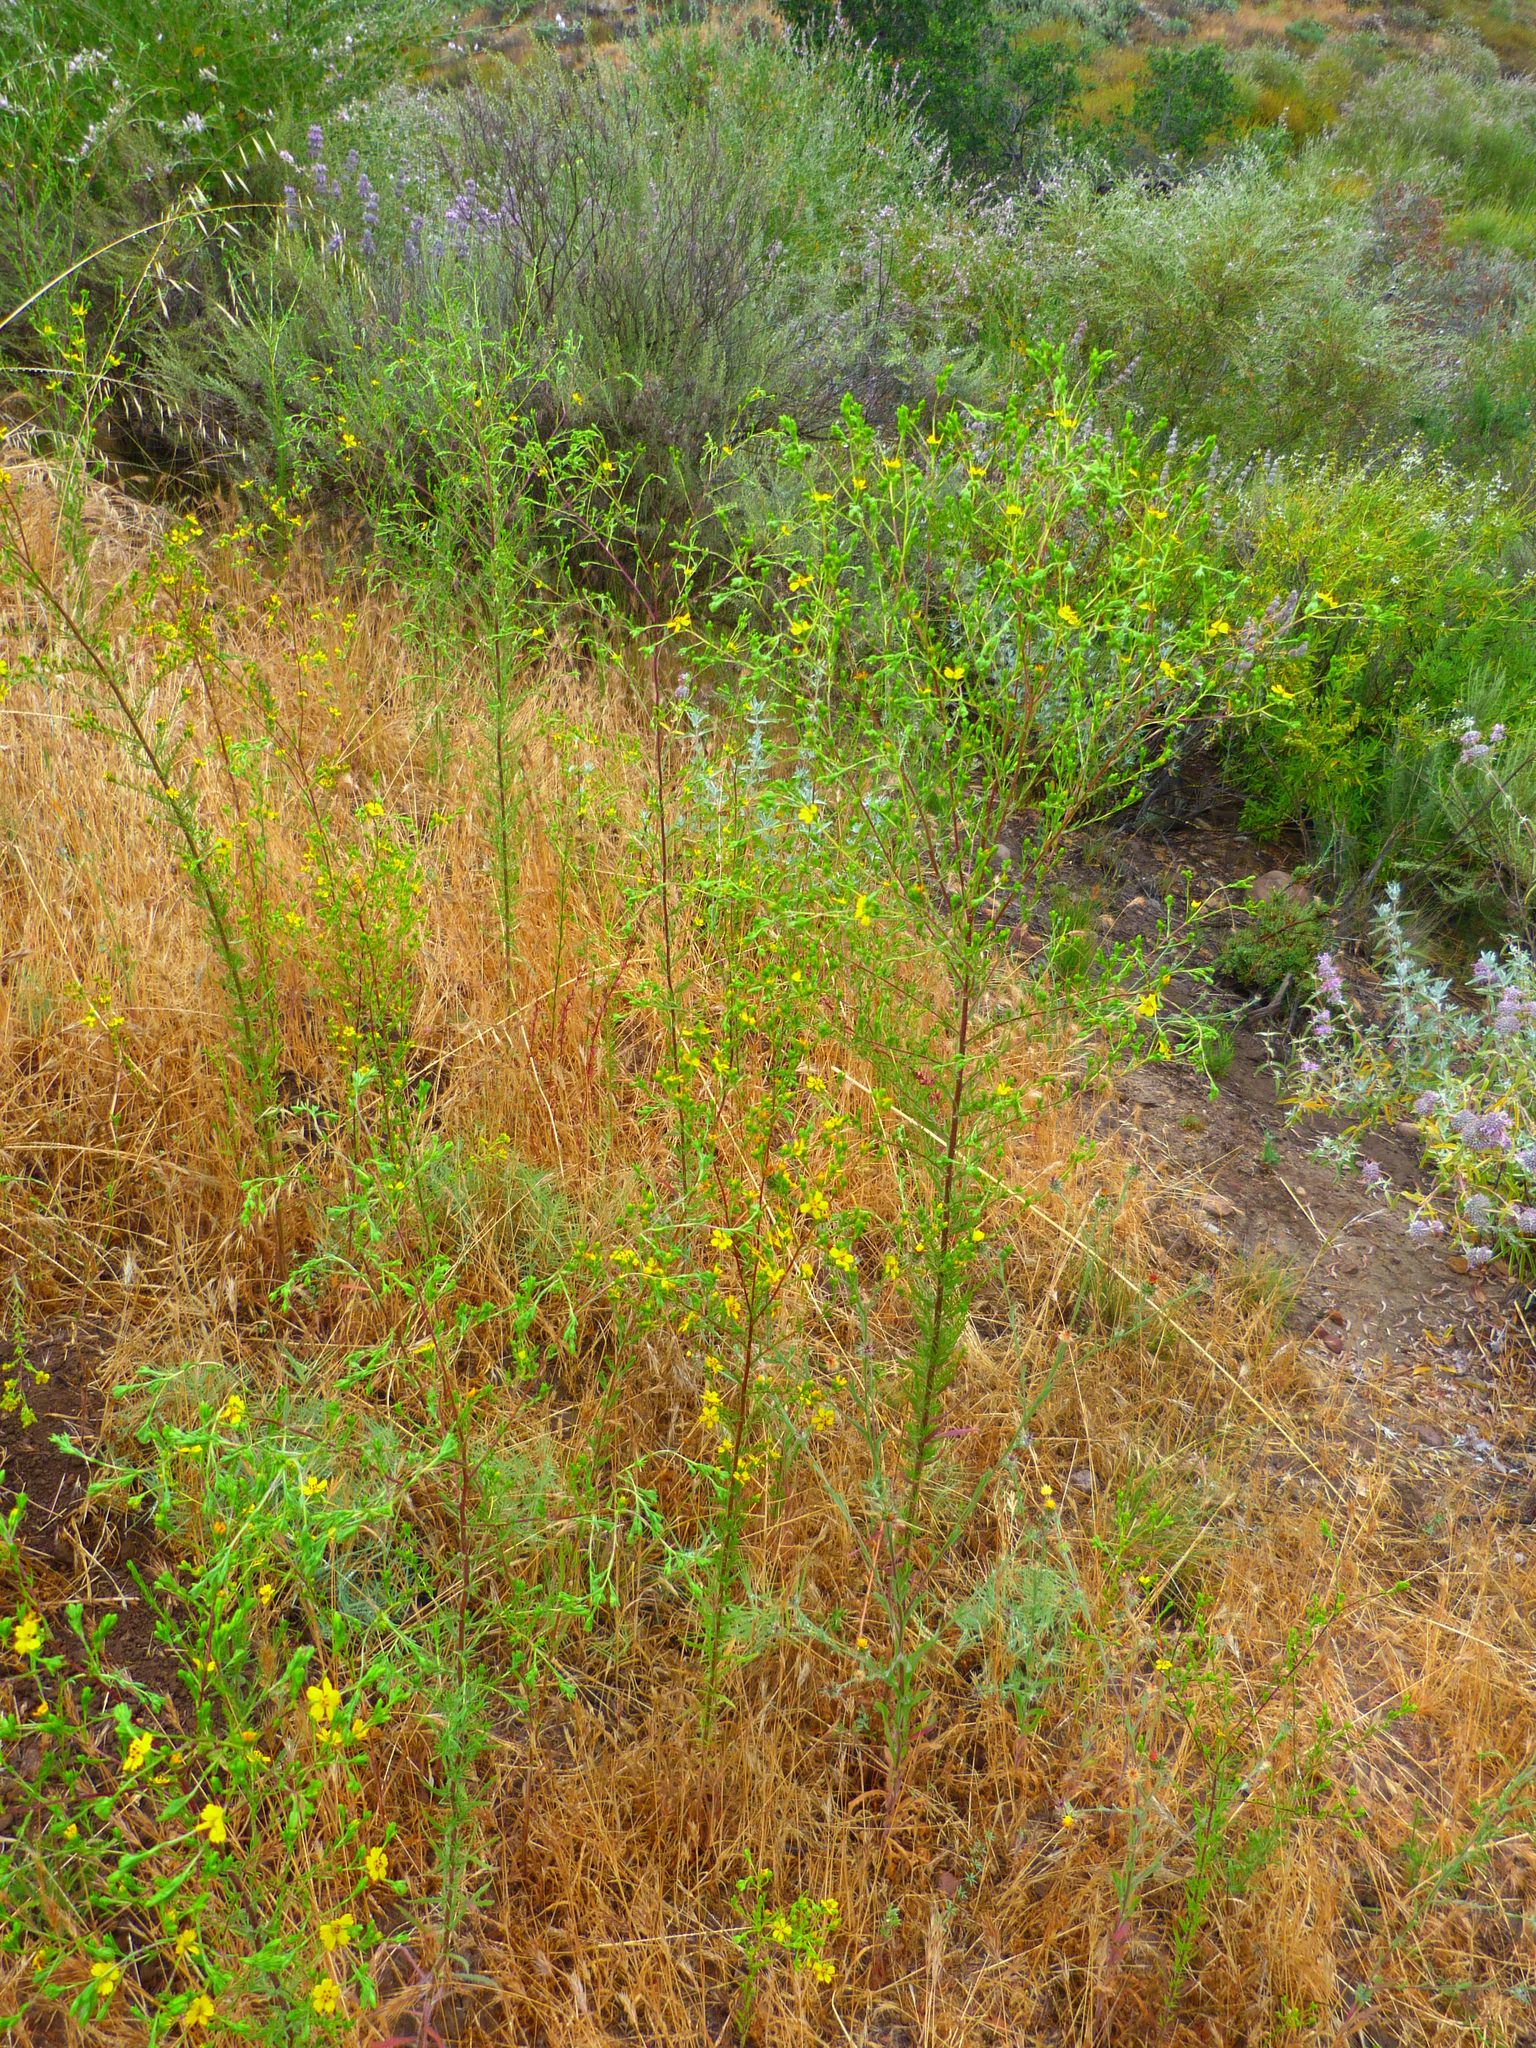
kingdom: Plantae
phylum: Tracheophyta
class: Magnoliopsida
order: Asterales
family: Asteraceae
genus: Deinandra
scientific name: Deinandra fasciculata
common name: Clustered tarweed
